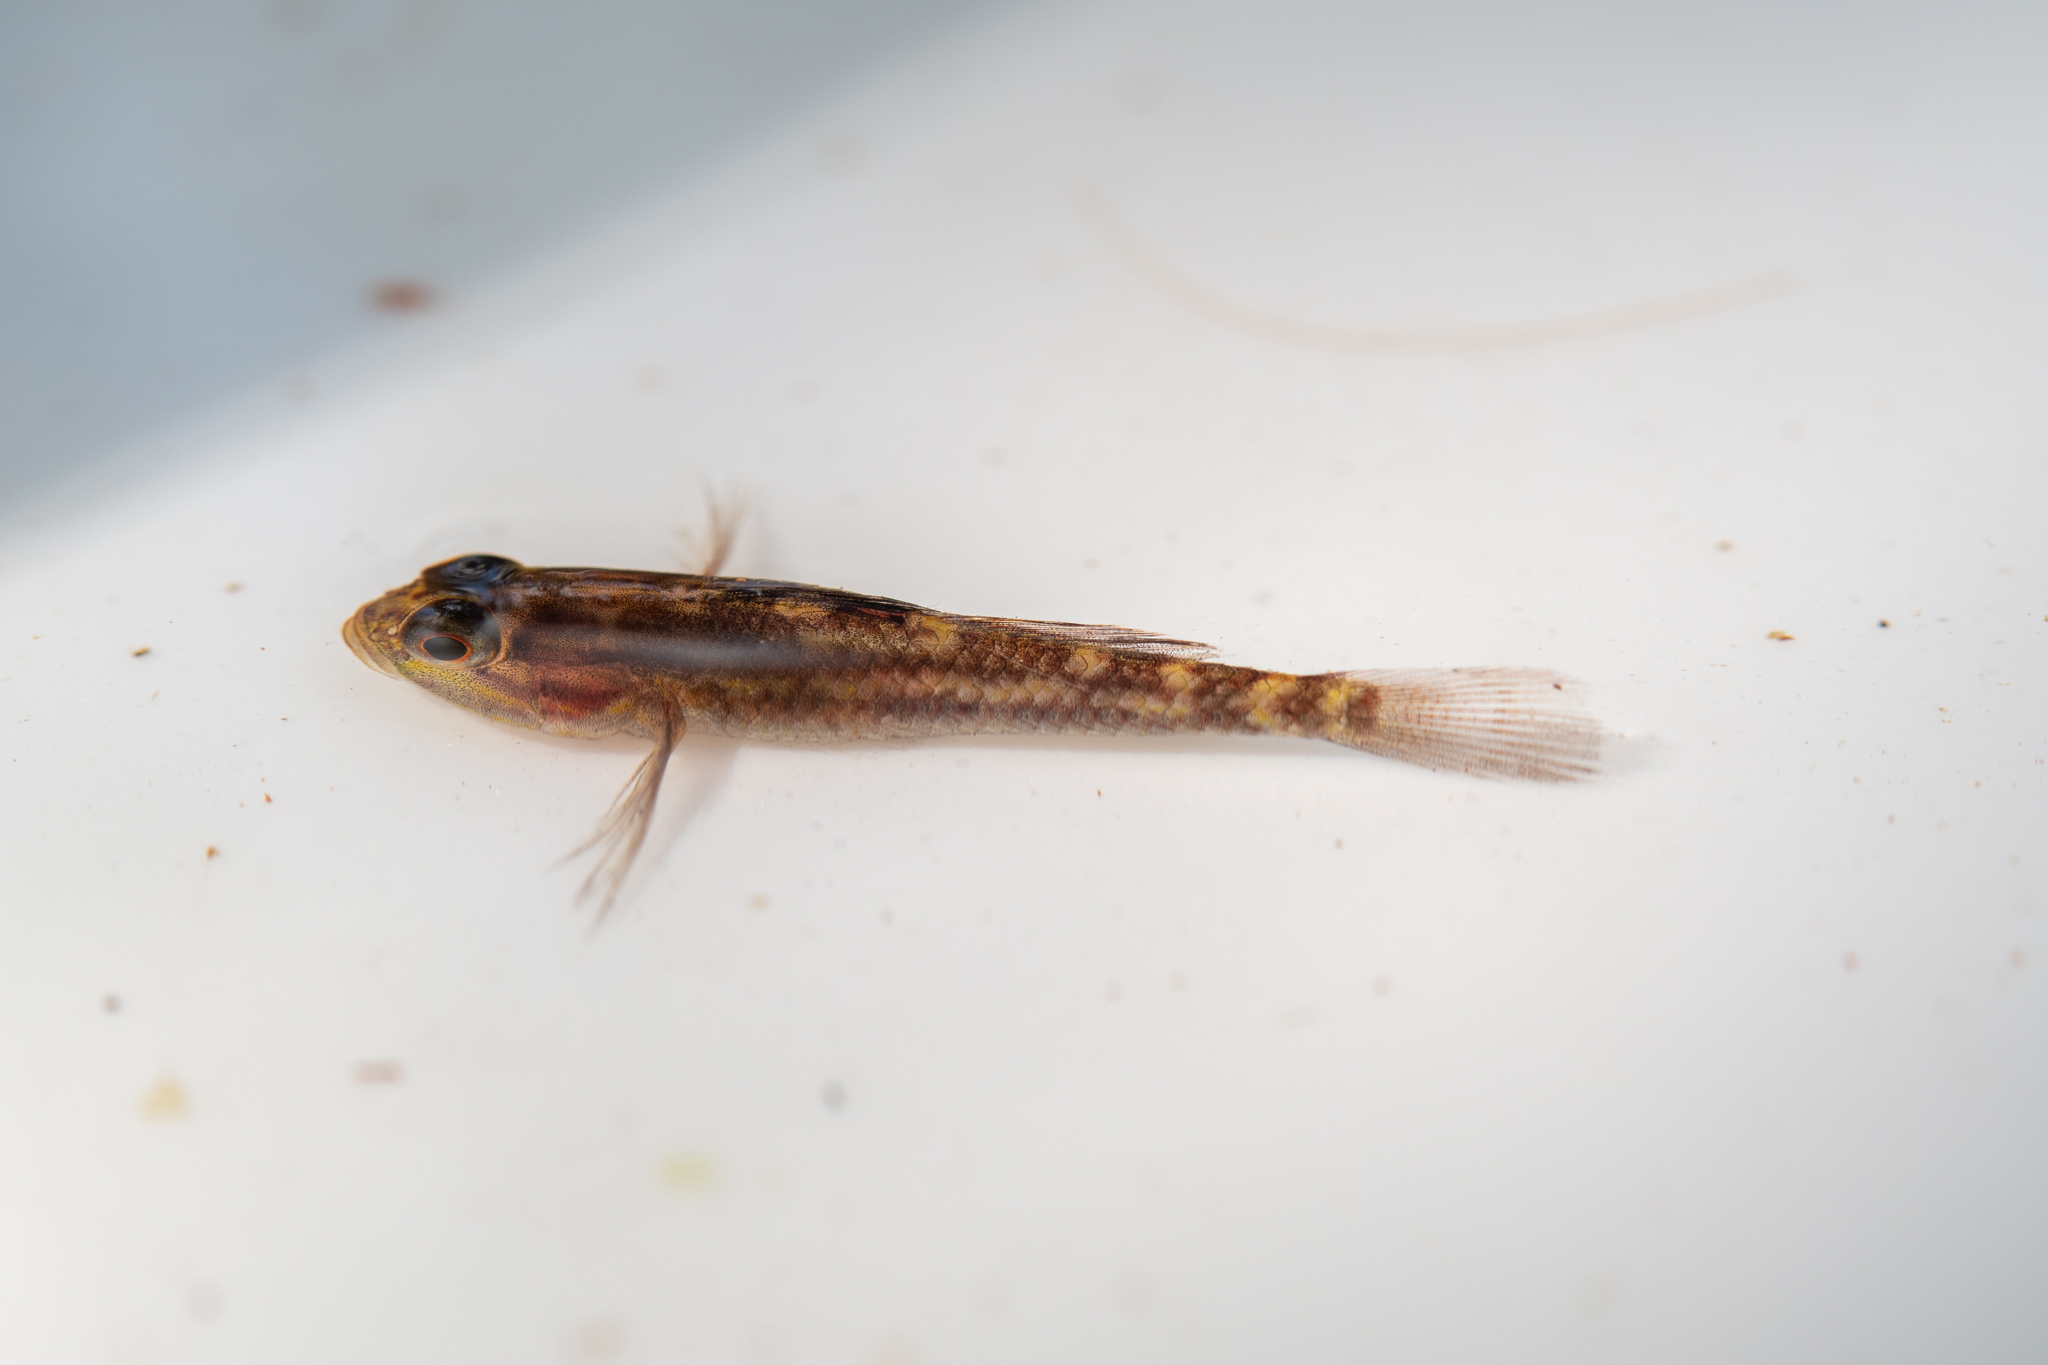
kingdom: Animalia
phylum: Chordata
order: Perciformes
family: Gobiidae
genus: Lophogobius
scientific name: Lophogobius cyprinoides
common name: Crested goby
